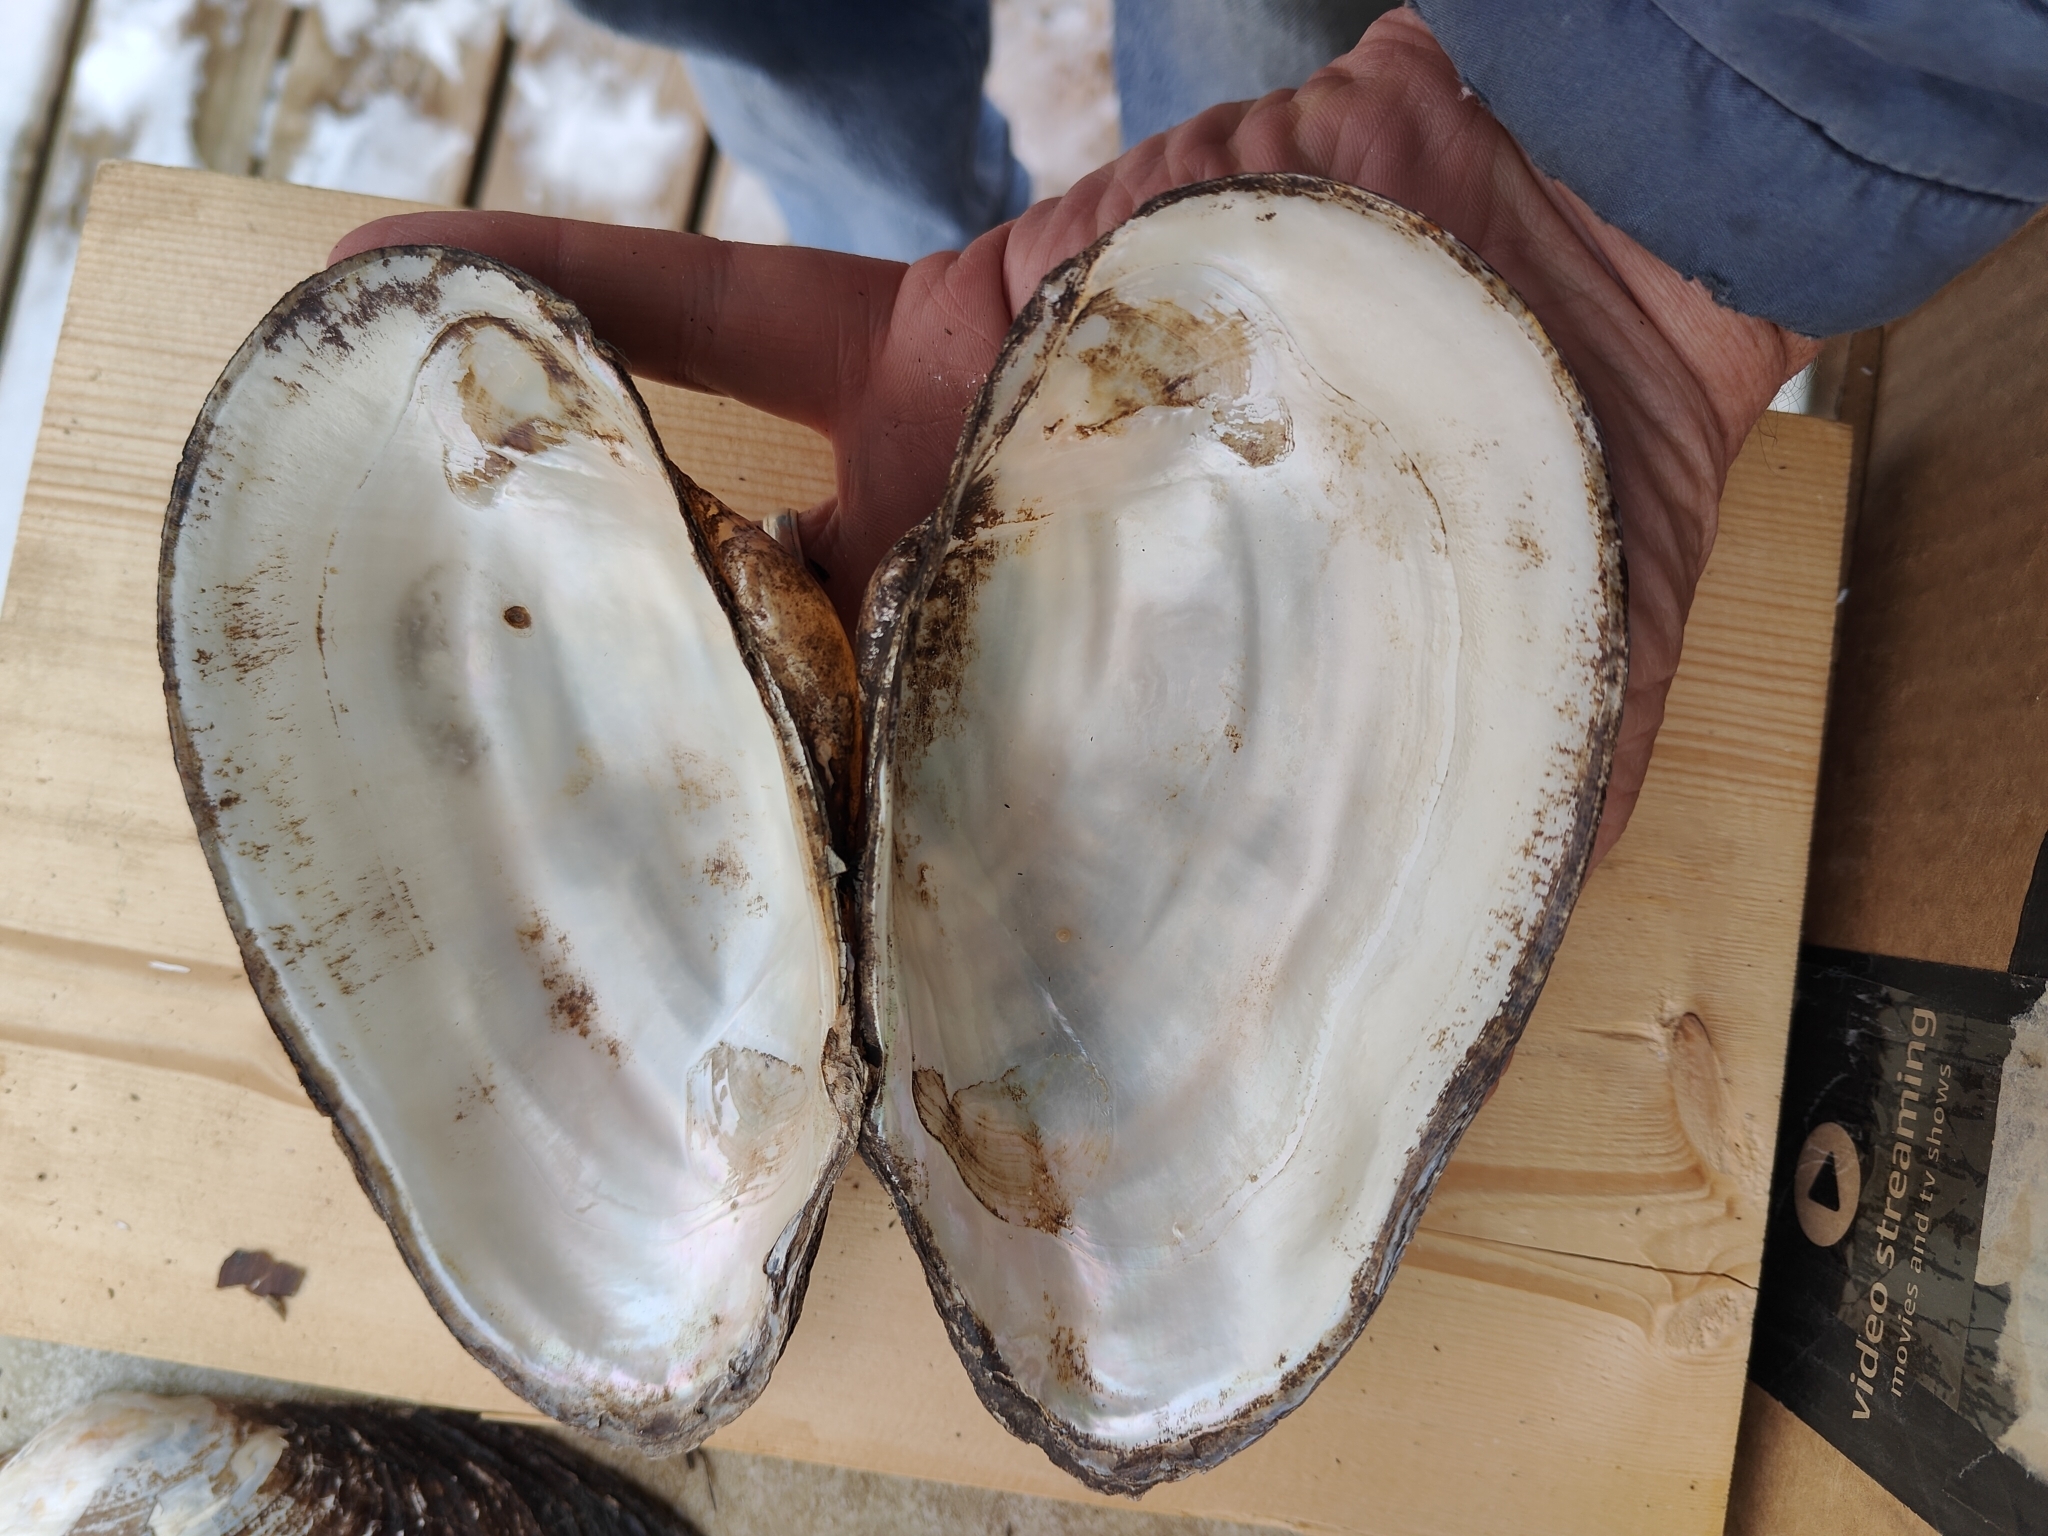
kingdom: Animalia
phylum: Mollusca
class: Bivalvia
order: Unionida
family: Unionidae
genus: Pyganodon
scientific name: Pyganodon grandis
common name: Giant floater
